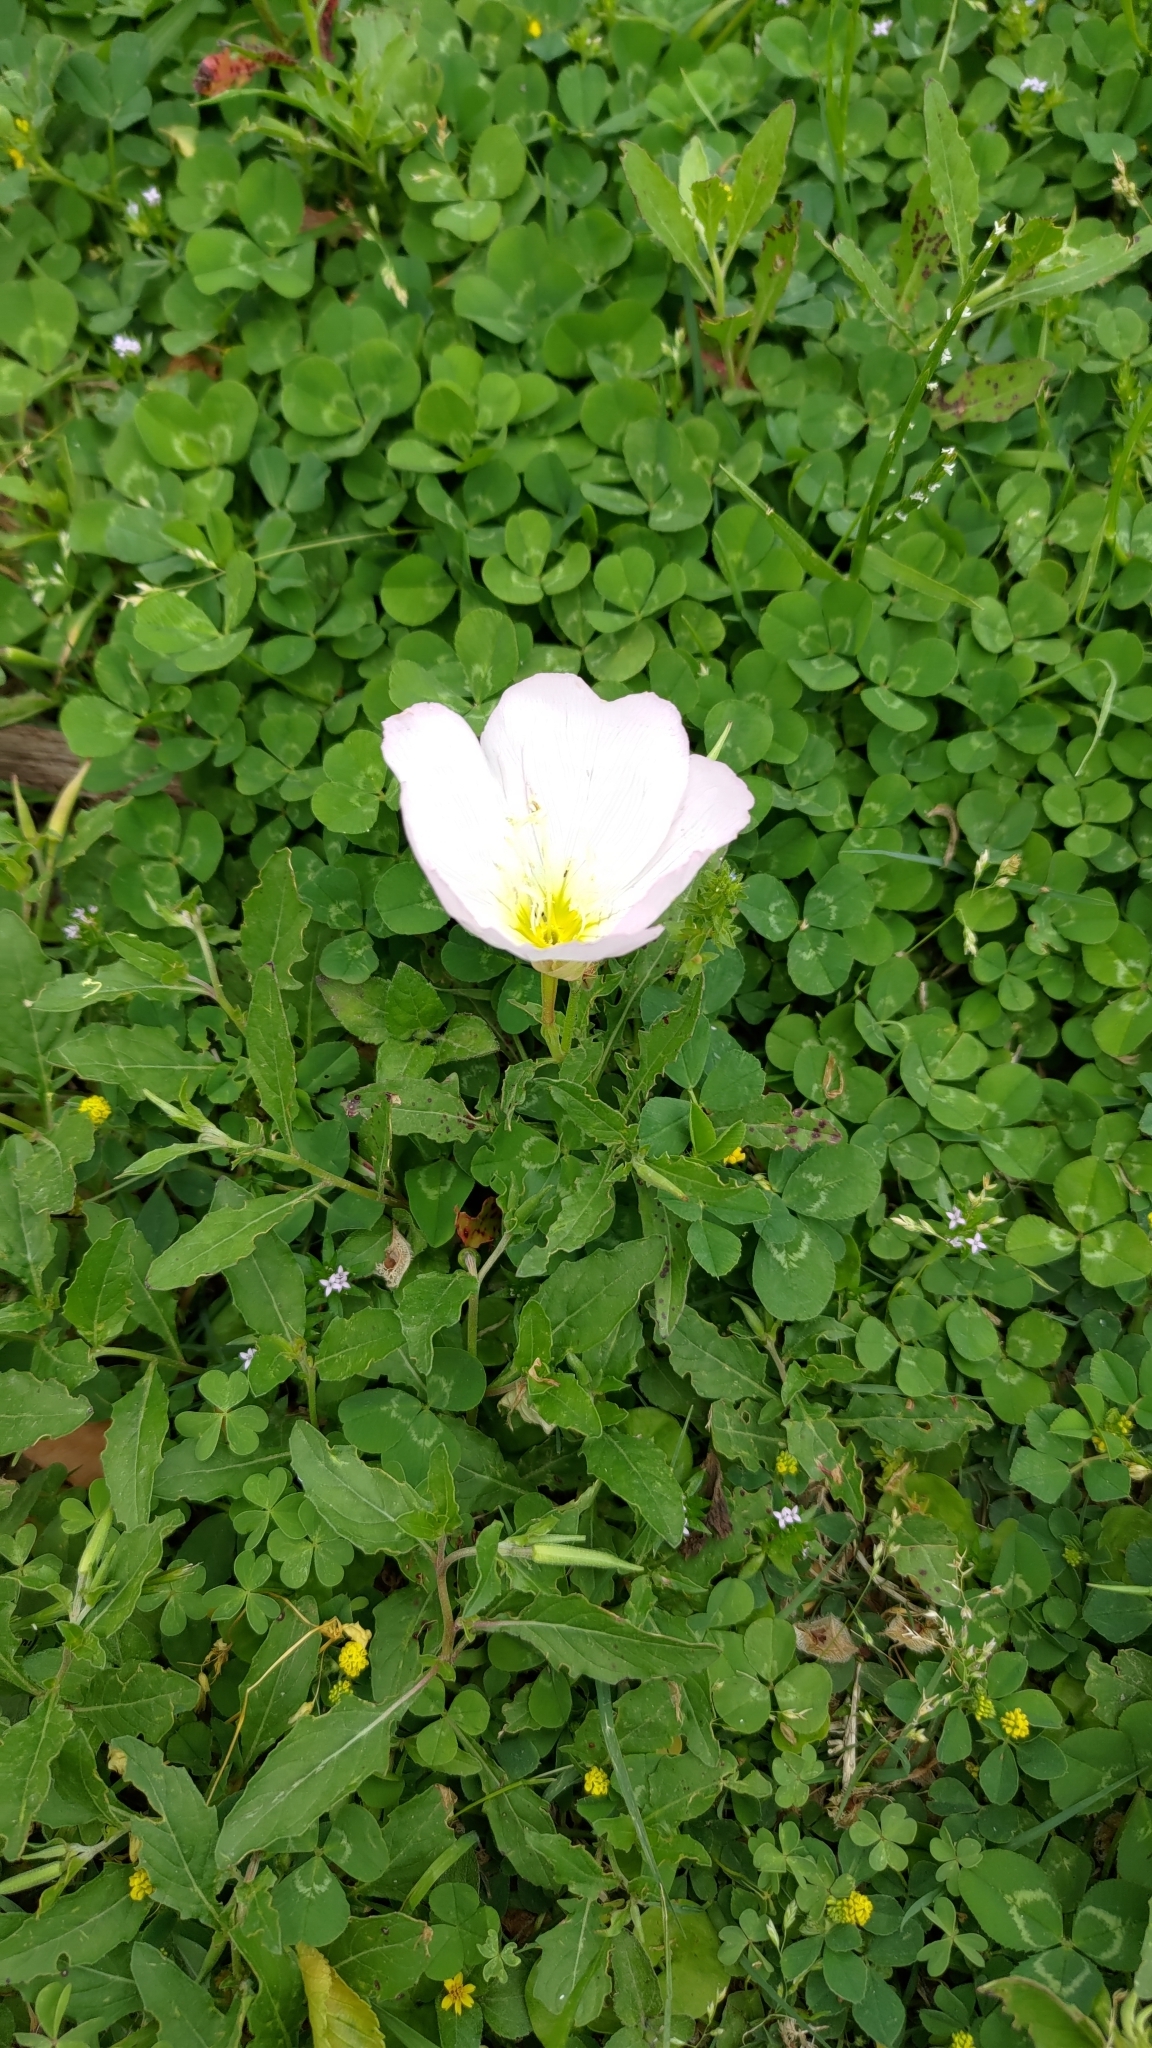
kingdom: Plantae
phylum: Tracheophyta
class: Magnoliopsida
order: Myrtales
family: Onagraceae
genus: Oenothera
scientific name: Oenothera speciosa
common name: White evening-primrose
